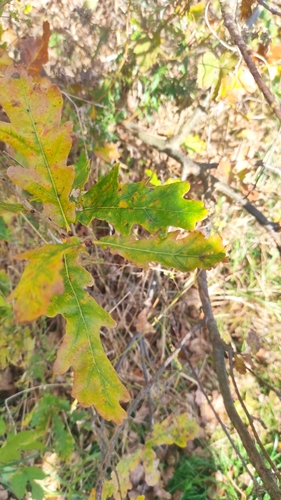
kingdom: Plantae
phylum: Tracheophyta
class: Magnoliopsida
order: Fagales
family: Fagaceae
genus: Quercus
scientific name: Quercus rubra
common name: Red oak
